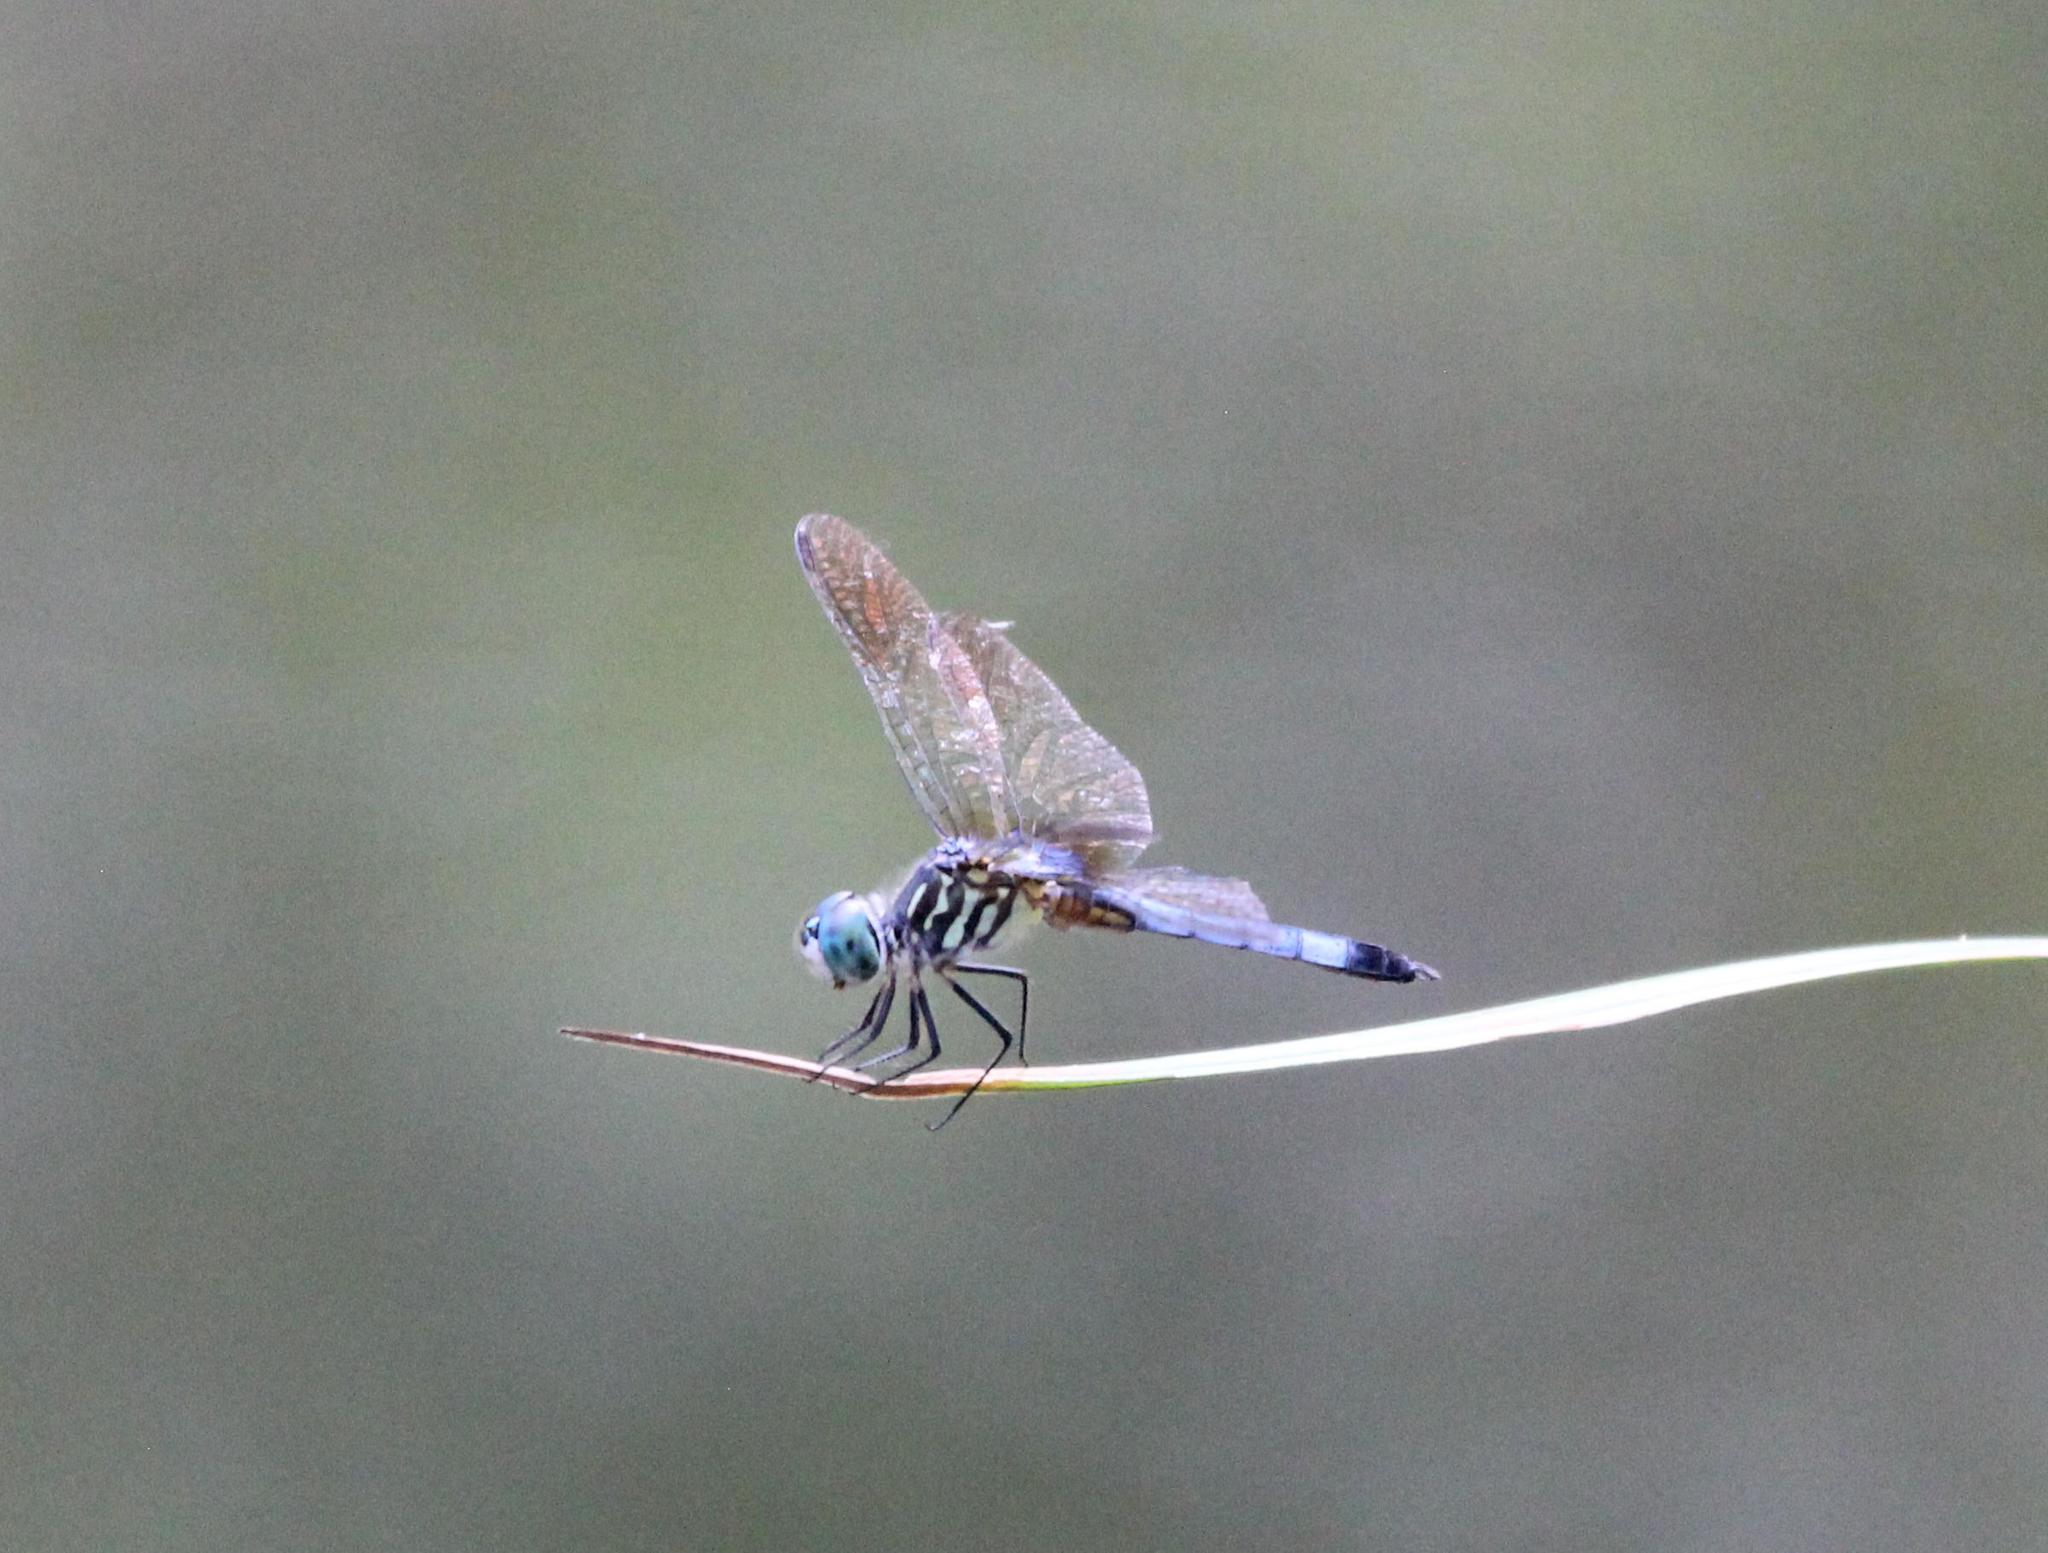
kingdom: Animalia
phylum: Arthropoda
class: Insecta
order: Odonata
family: Libellulidae
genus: Pachydiplax
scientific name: Pachydiplax longipennis
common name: Blue dasher
